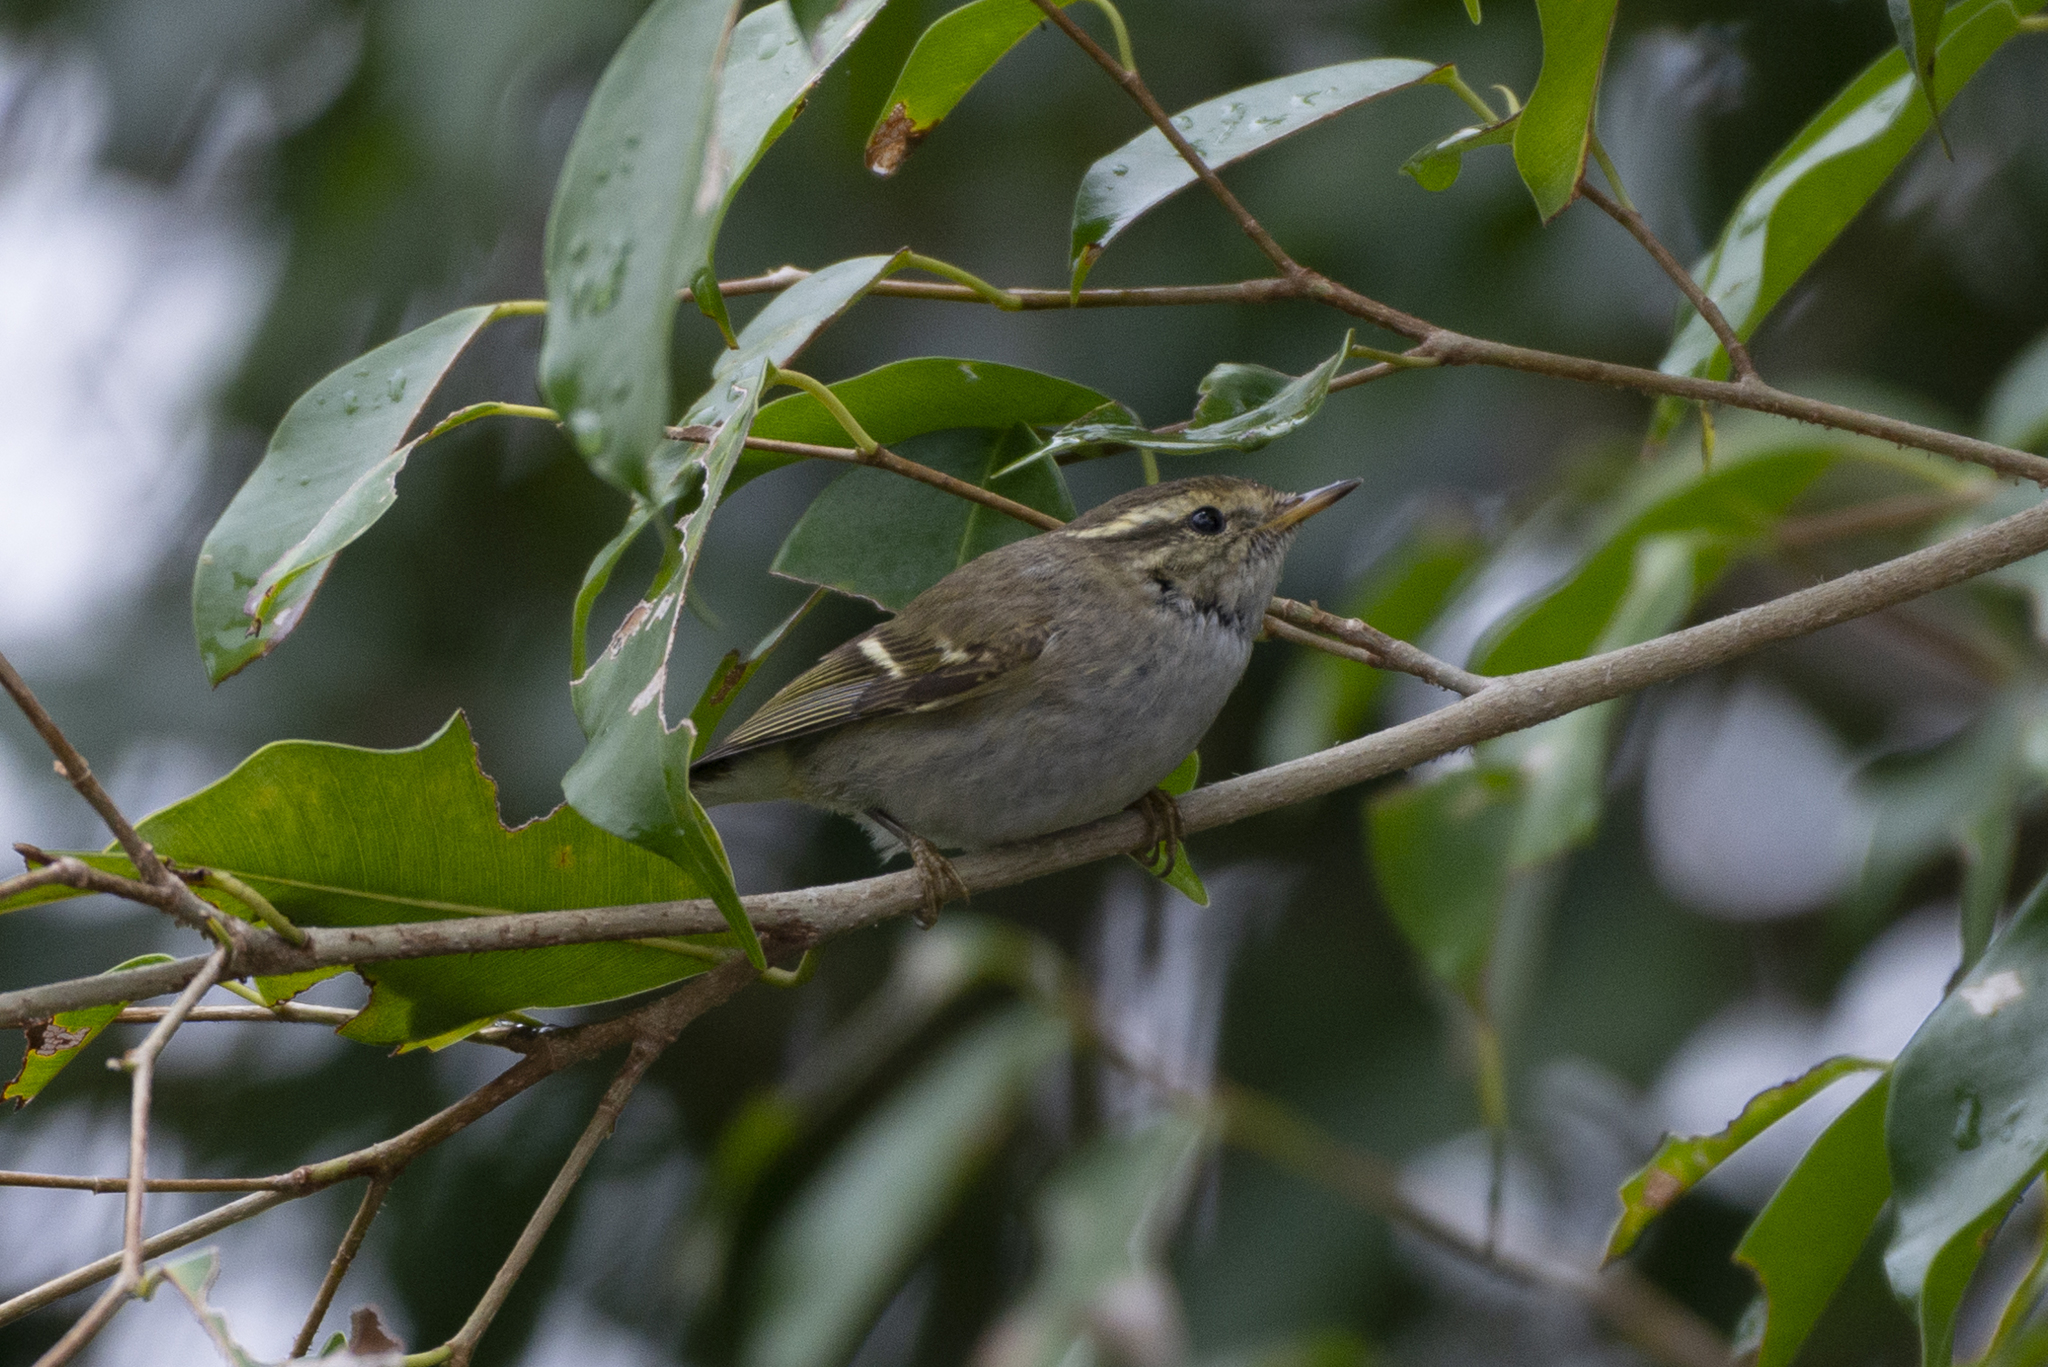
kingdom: Animalia
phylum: Chordata
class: Aves
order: Passeriformes
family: Phylloscopidae
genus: Phylloscopus
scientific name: Phylloscopus inornatus
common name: Yellow-browed warbler
